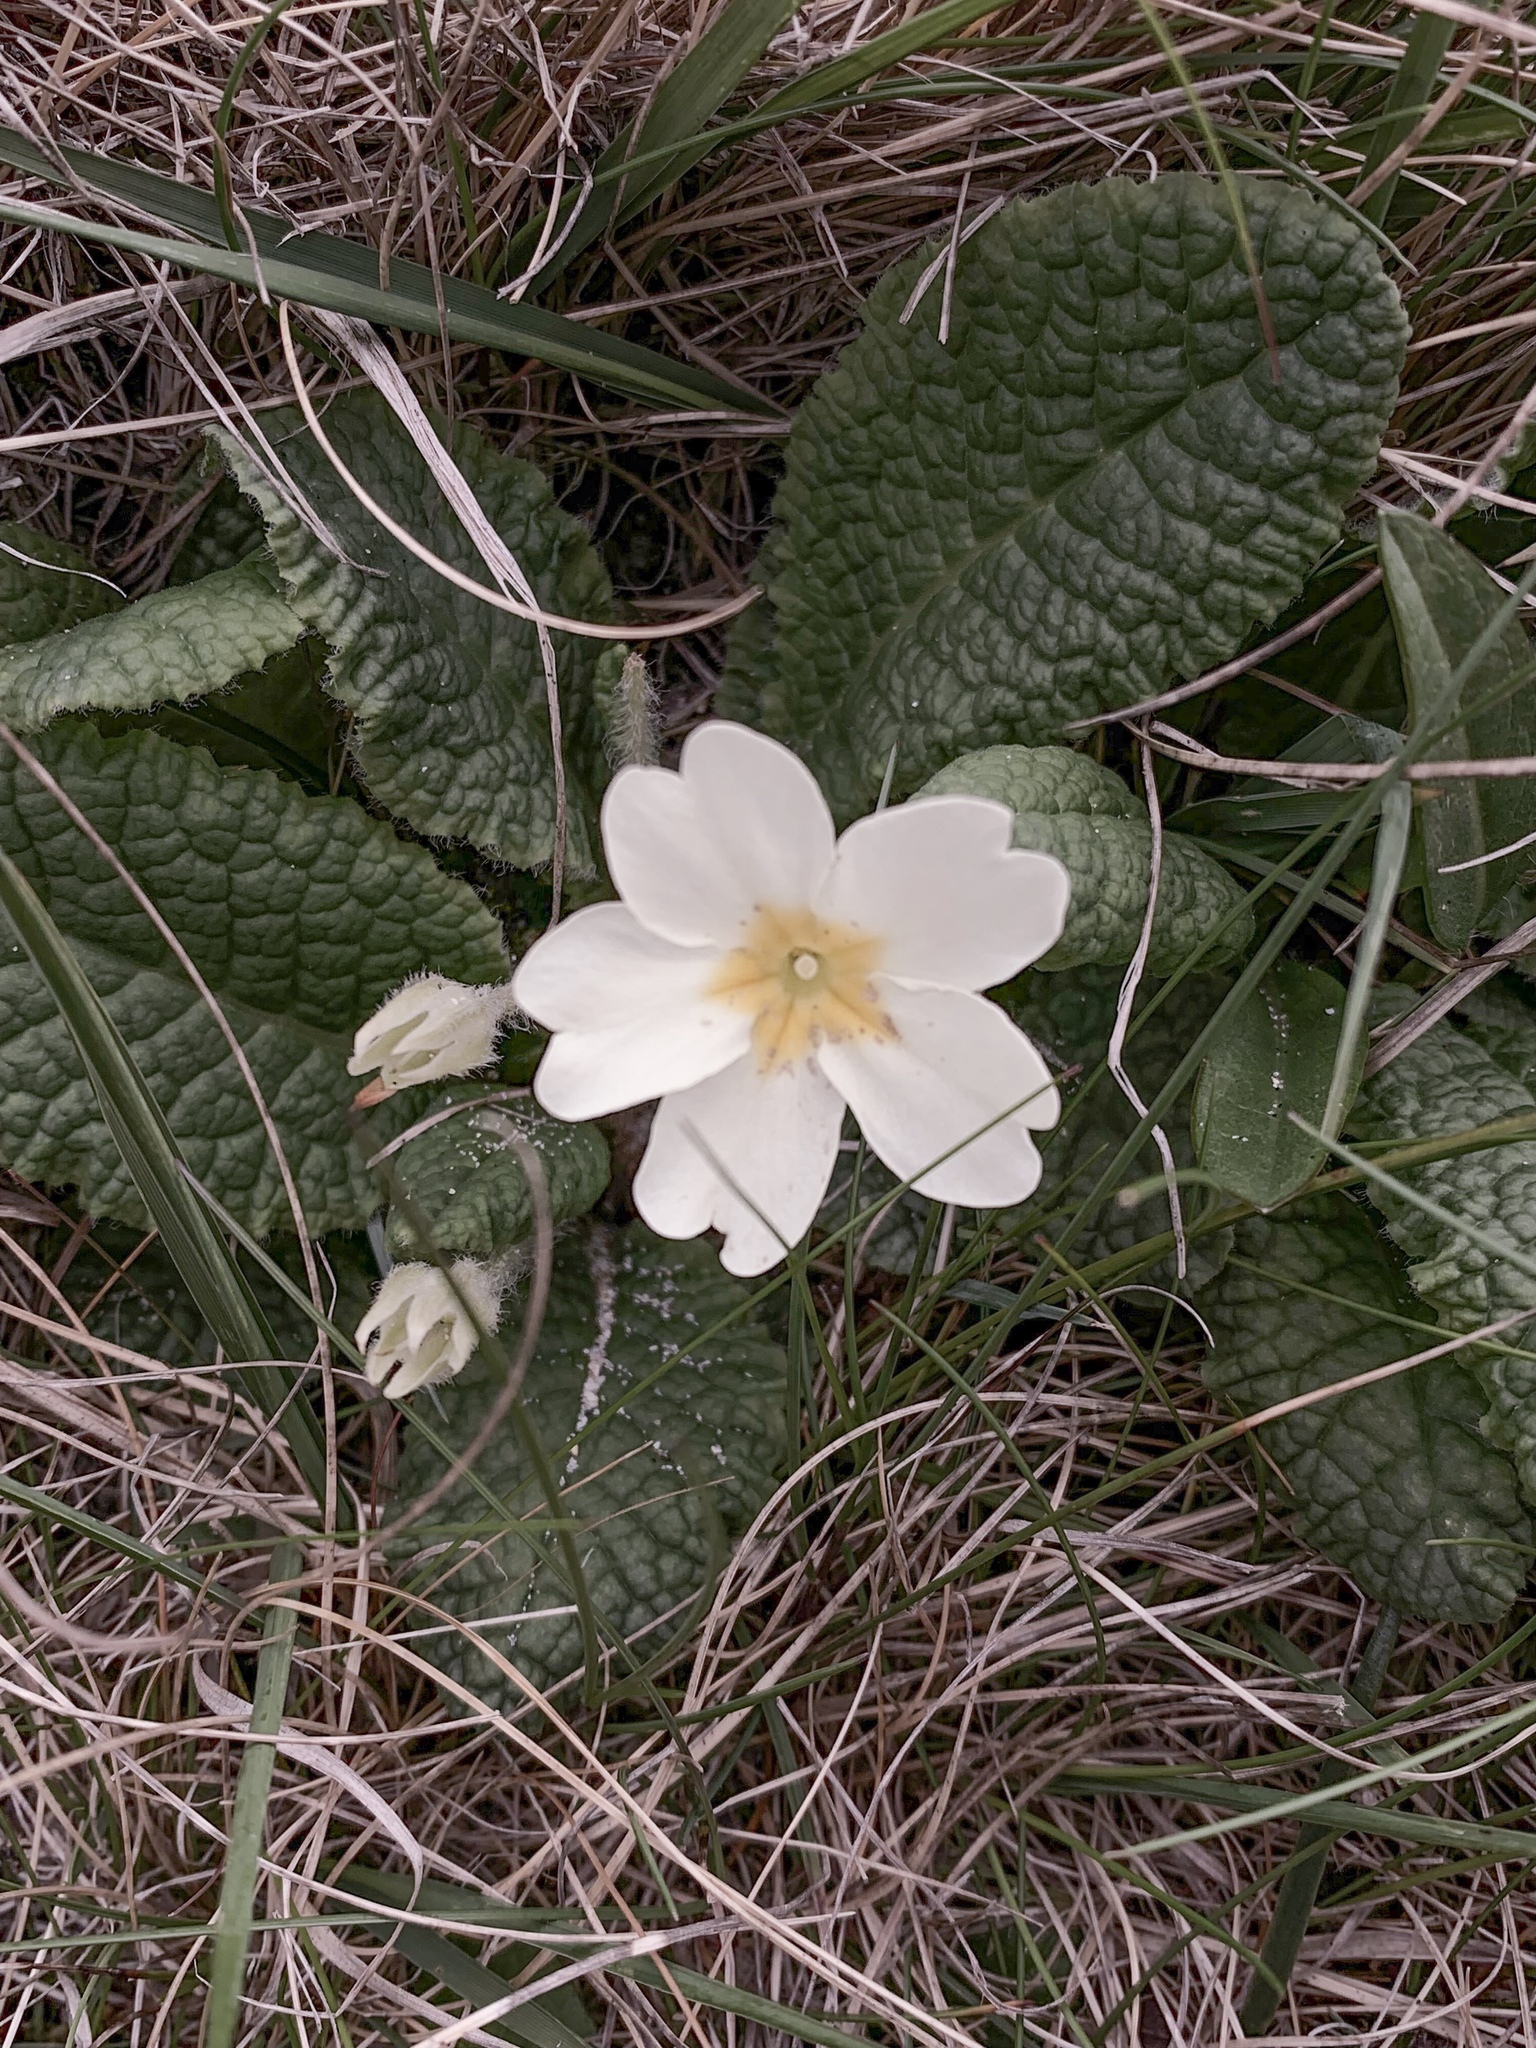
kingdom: Plantae
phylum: Tracheophyta
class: Magnoliopsida
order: Ericales
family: Primulaceae
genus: Primula
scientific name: Primula vulgaris
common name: Primrose
